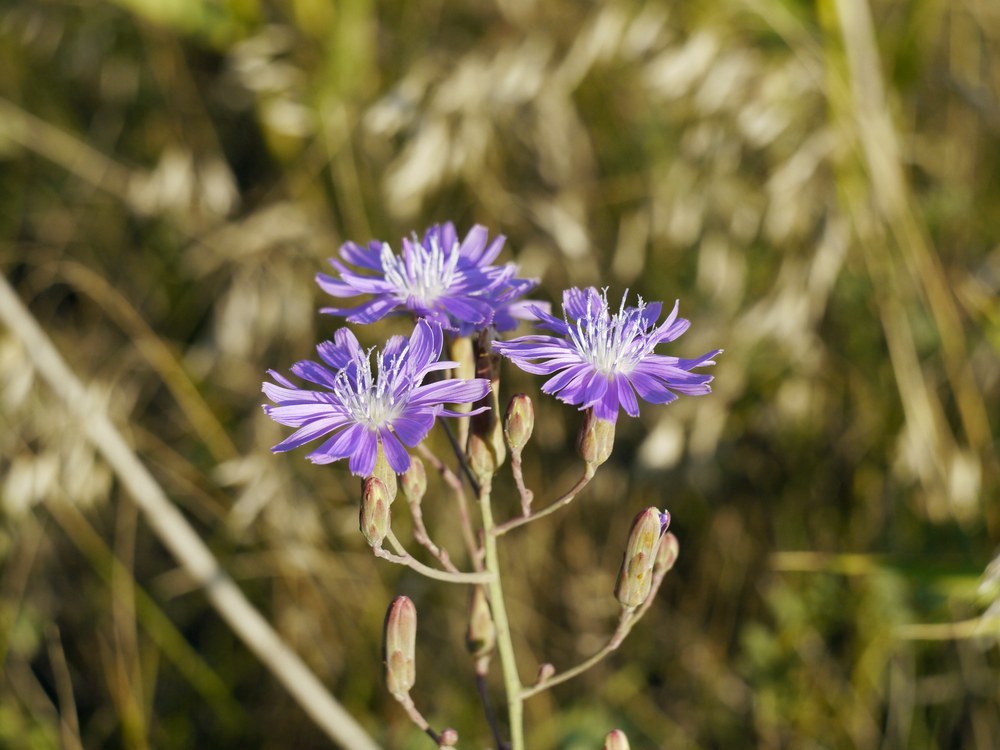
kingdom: Plantae
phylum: Tracheophyta
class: Magnoliopsida
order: Asterales
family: Asteraceae
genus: Lactuca
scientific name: Lactuca tatarica
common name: Blue lettuce
